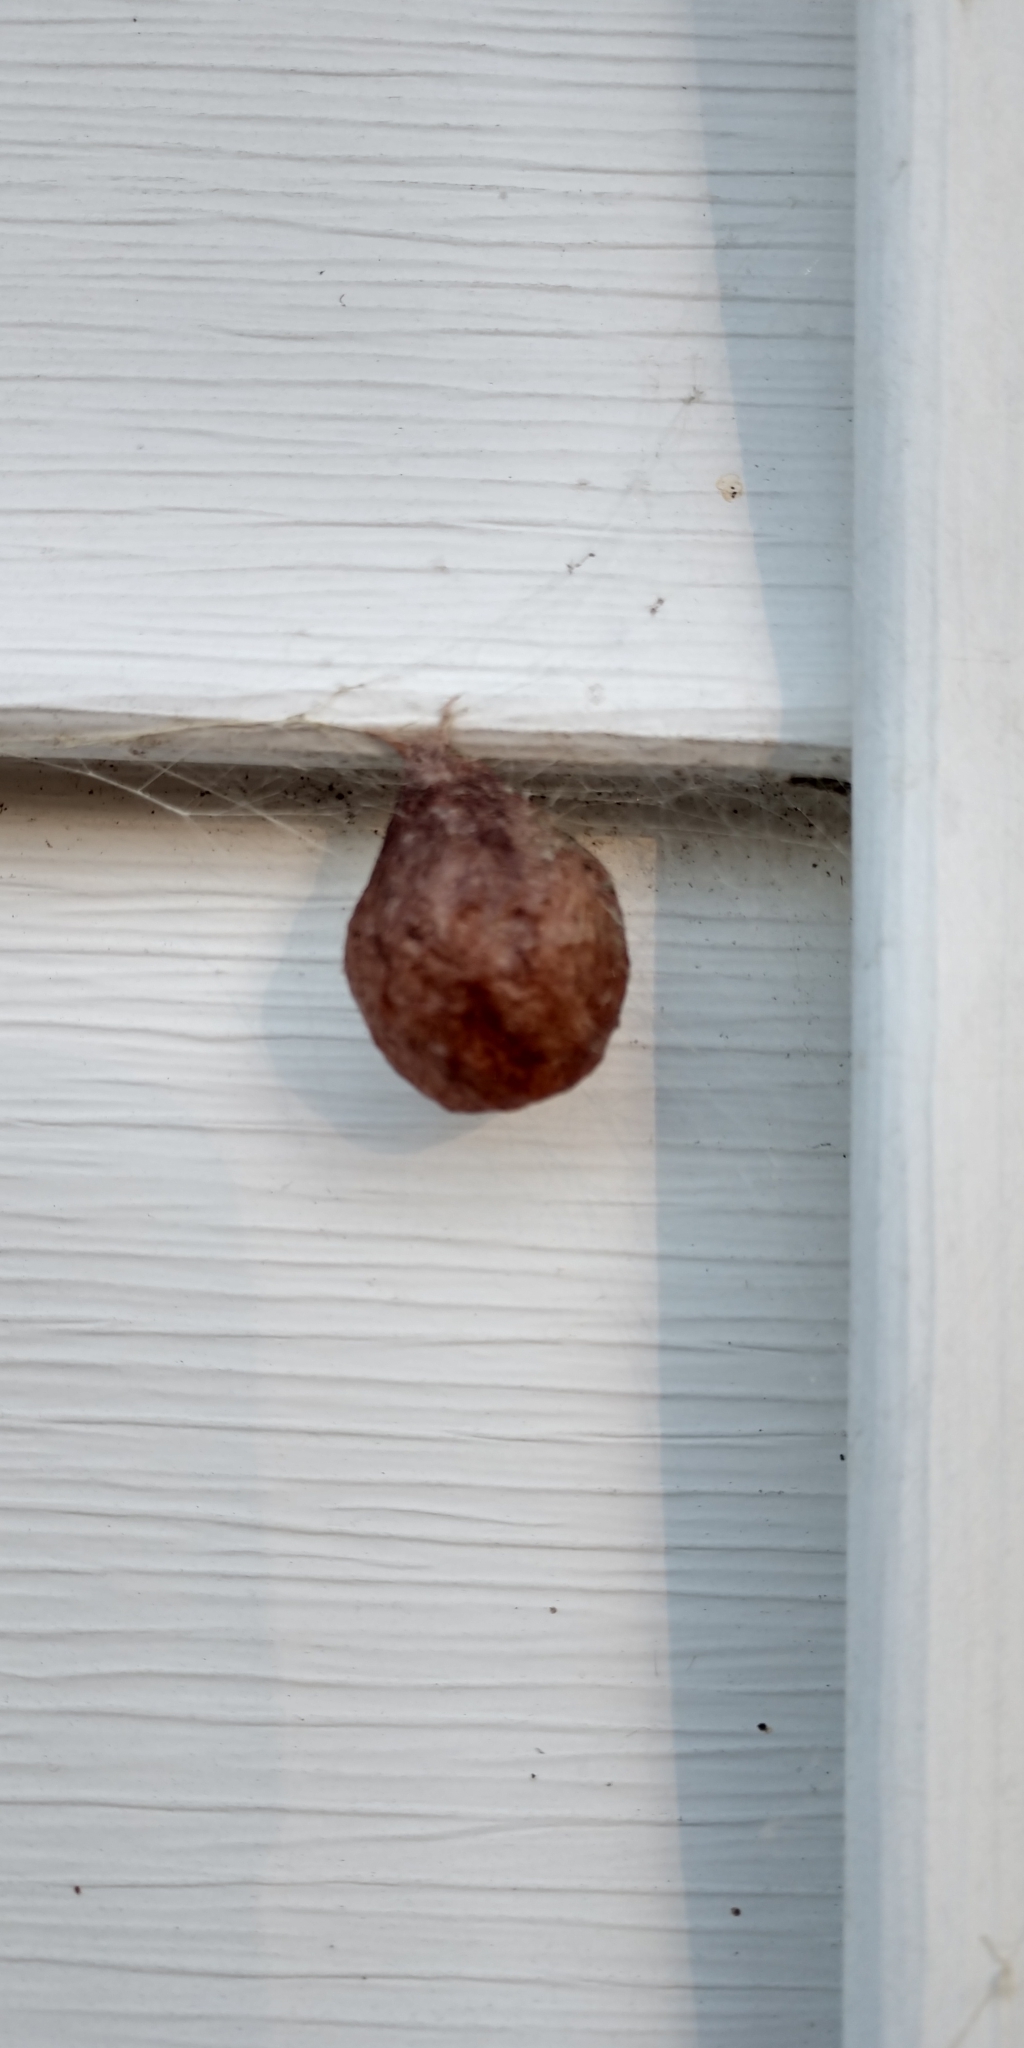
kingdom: Animalia
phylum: Arthropoda
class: Arachnida
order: Araneae
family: Araneidae
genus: Argiope
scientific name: Argiope aurantia
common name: Orb weavers
